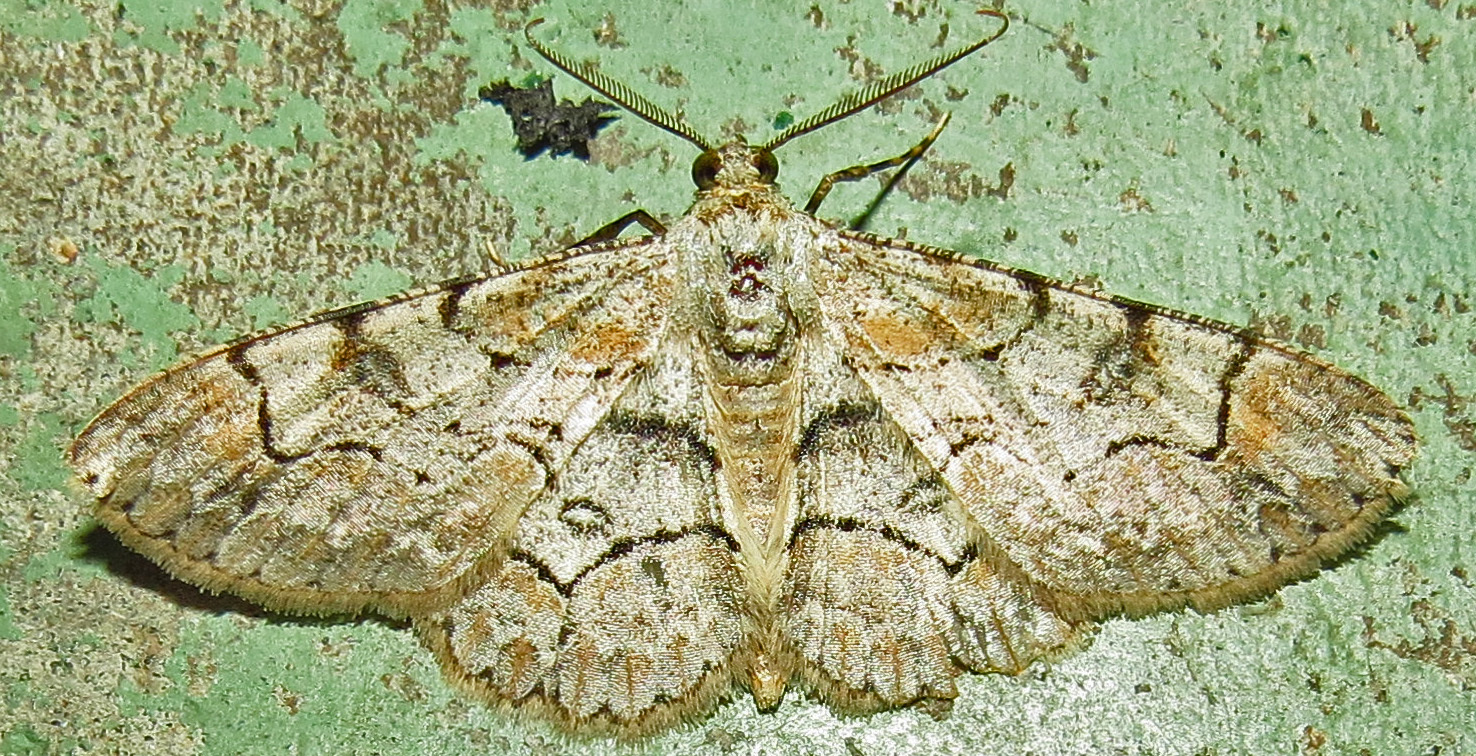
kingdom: Animalia
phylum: Arthropoda
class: Insecta
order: Lepidoptera
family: Geometridae
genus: Iridopsis
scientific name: Iridopsis larvaria
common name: Bent-line gray
